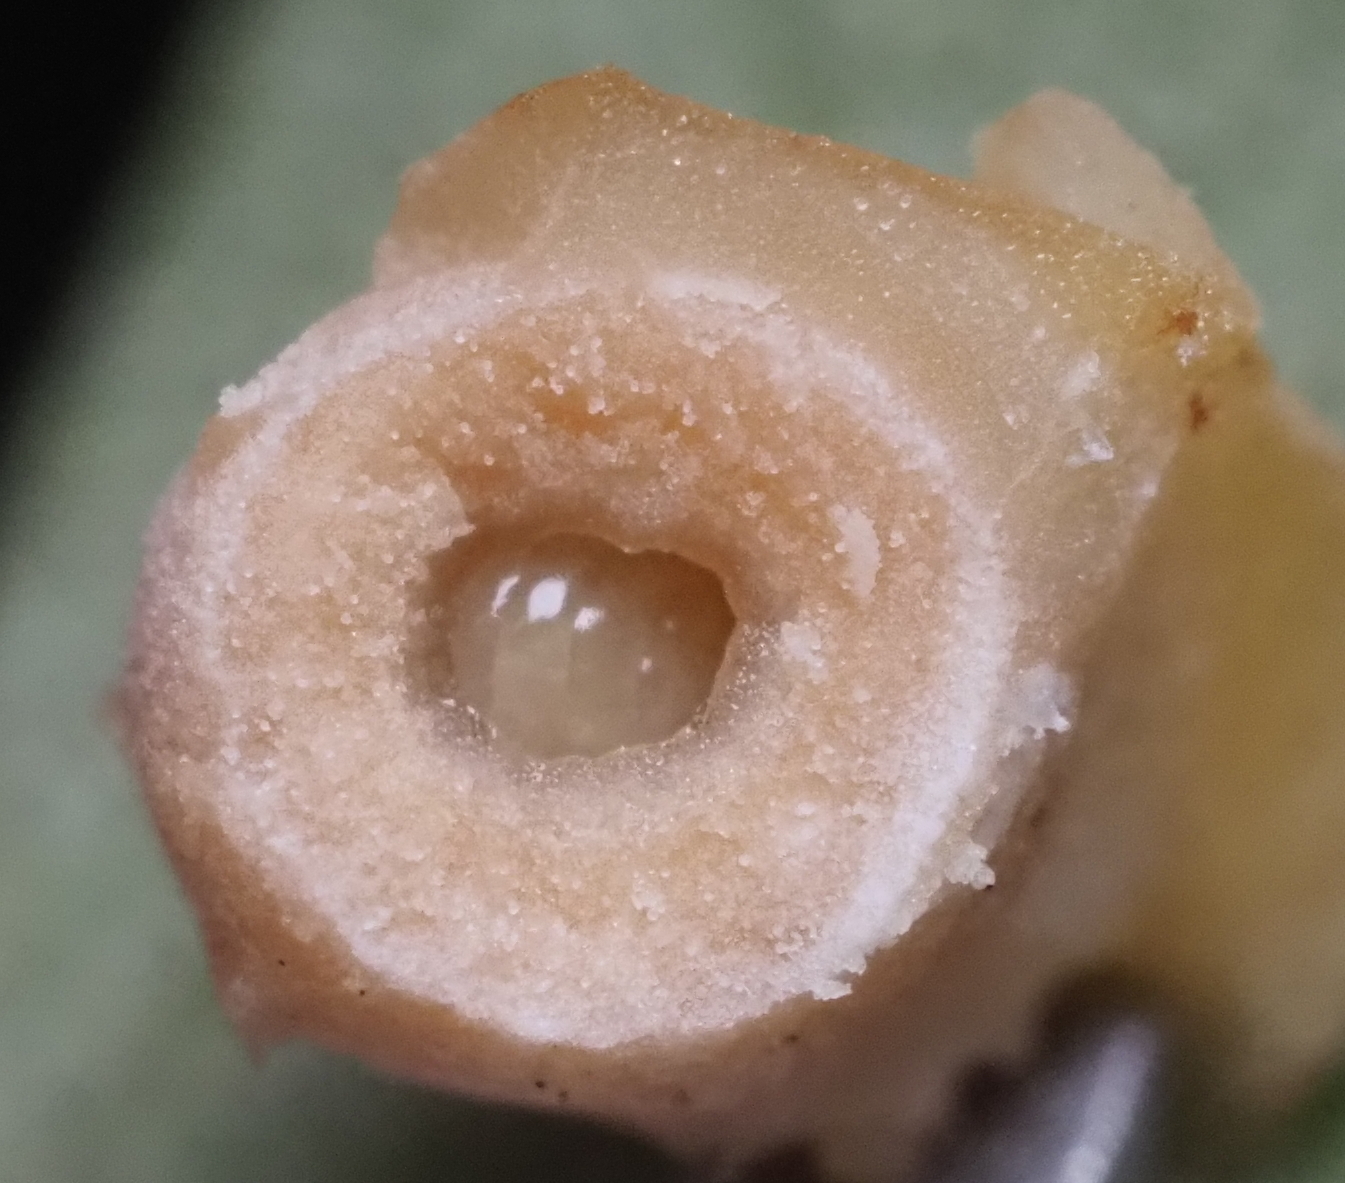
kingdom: Animalia
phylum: Arthropoda
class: Insecta
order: Hymenoptera
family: Cynipidae
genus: Disholcaspis
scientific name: Disholcaspis
